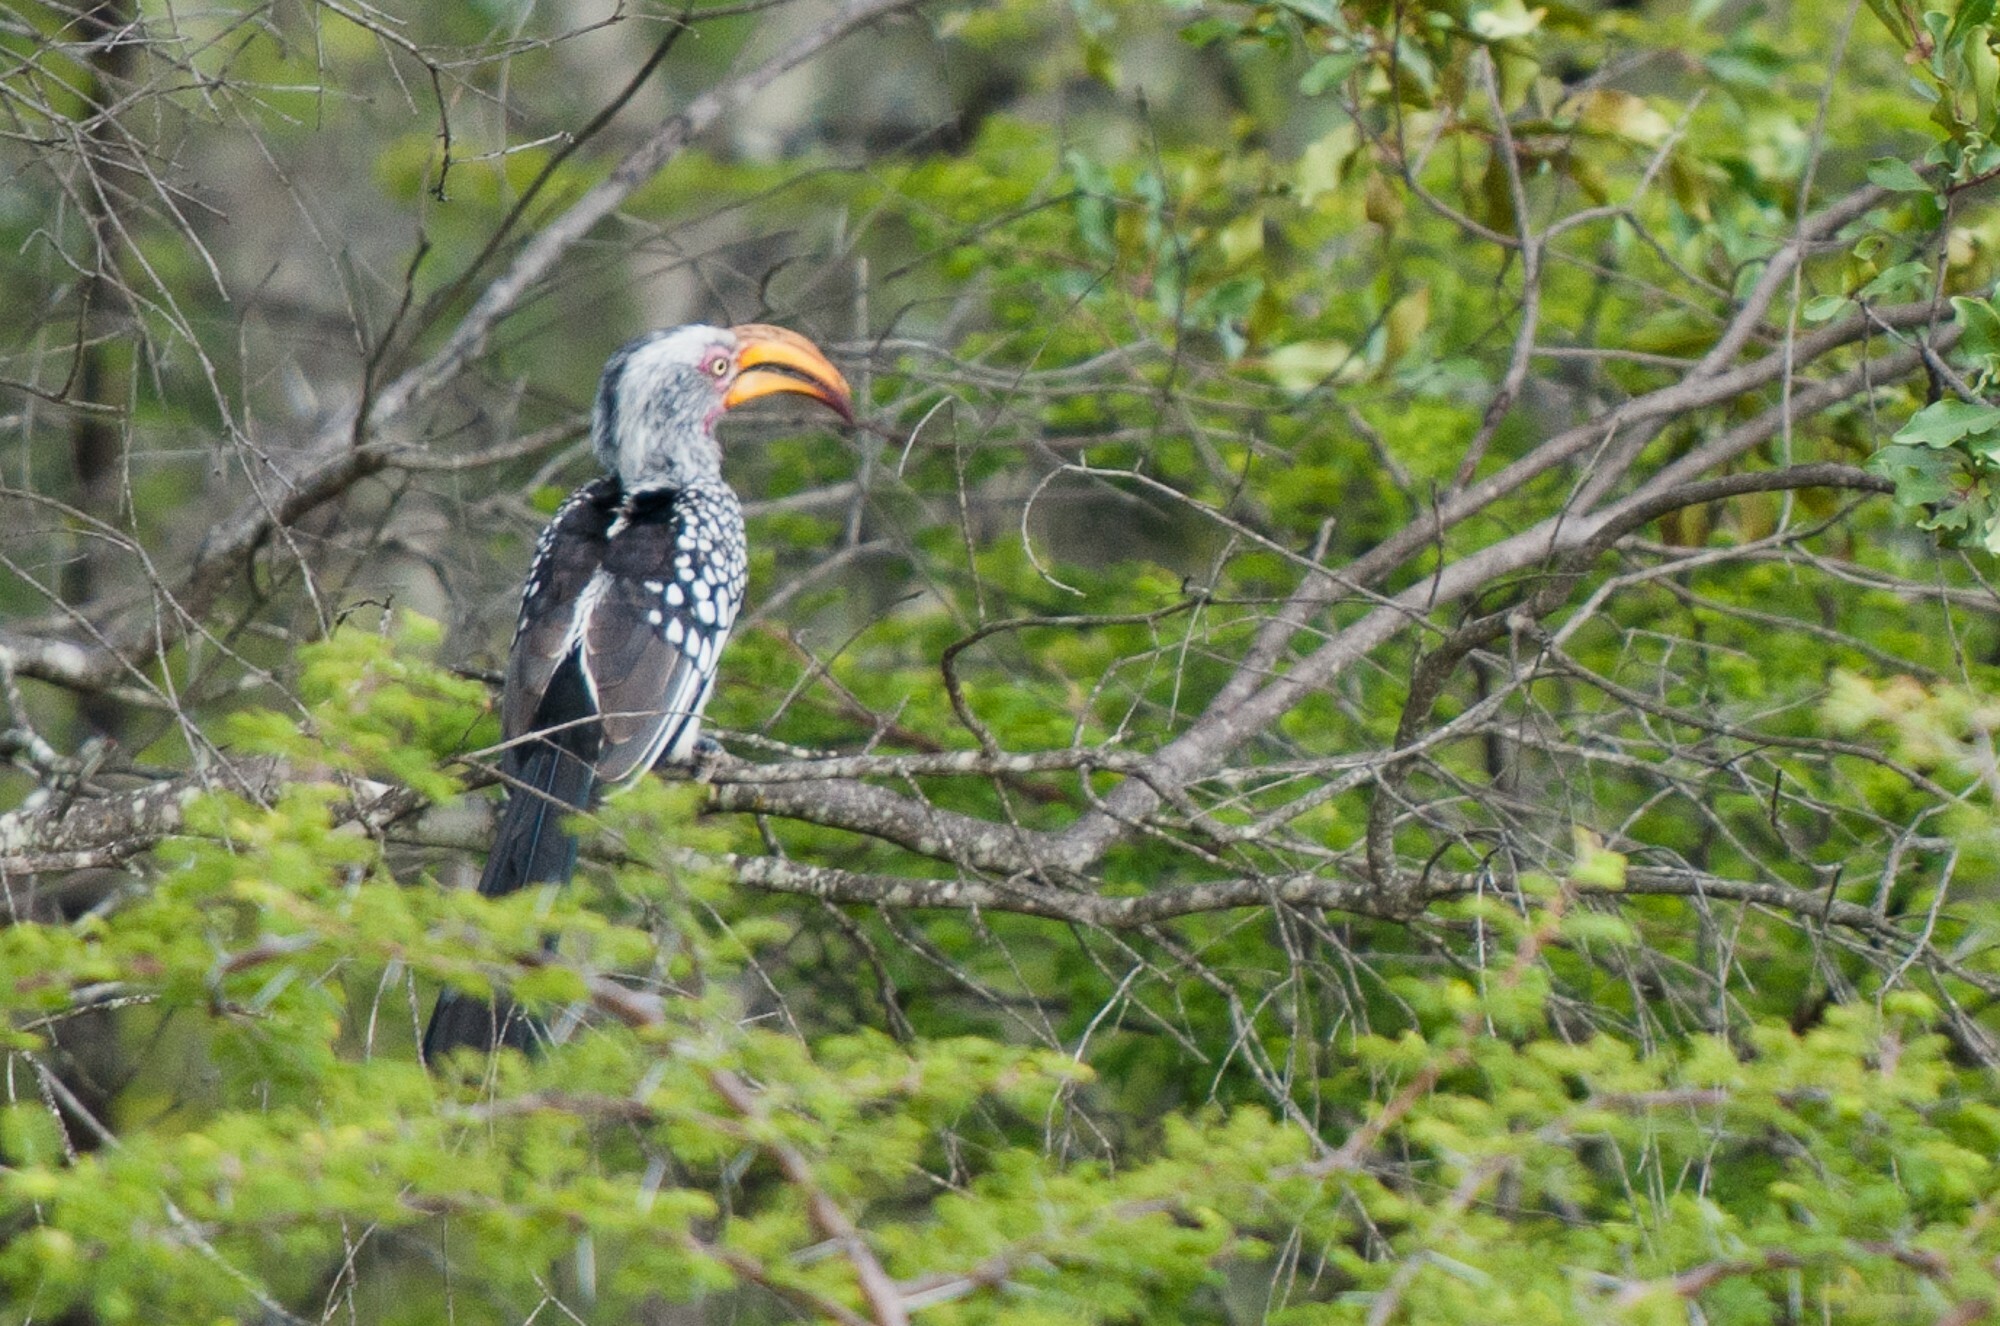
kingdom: Animalia
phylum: Chordata
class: Aves
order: Bucerotiformes
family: Bucerotidae
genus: Tockus
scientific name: Tockus leucomelas
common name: Southern yellow-billed hornbill
